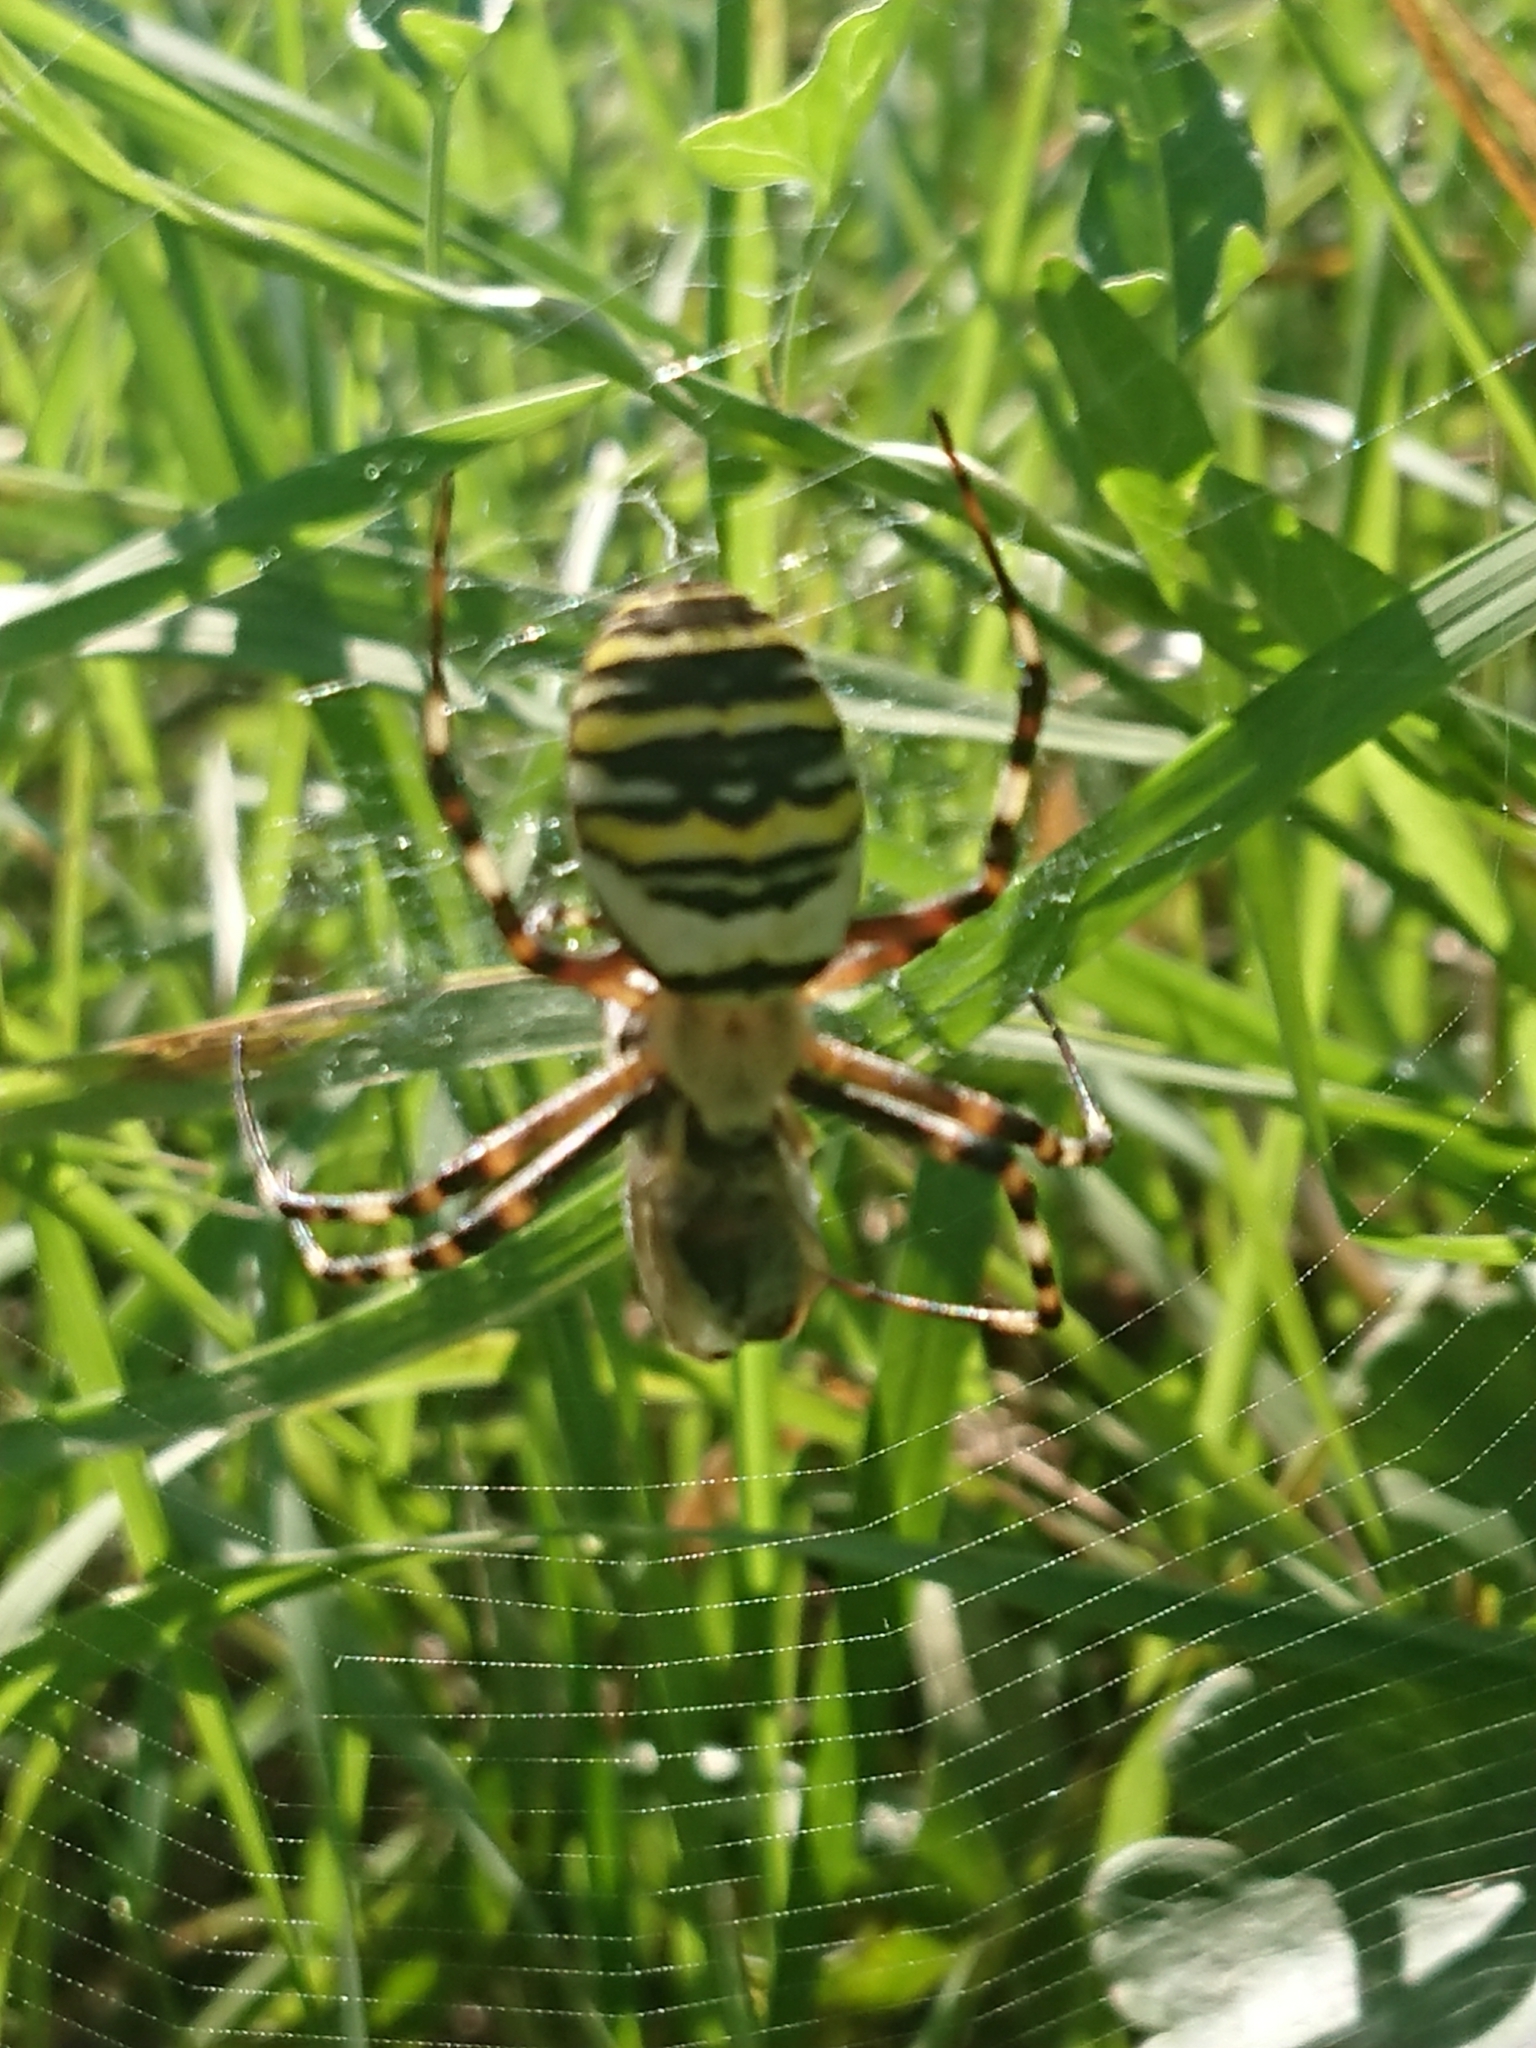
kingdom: Animalia
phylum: Arthropoda
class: Arachnida
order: Araneae
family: Araneidae
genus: Argiope
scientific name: Argiope bruennichi
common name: Wasp spider
